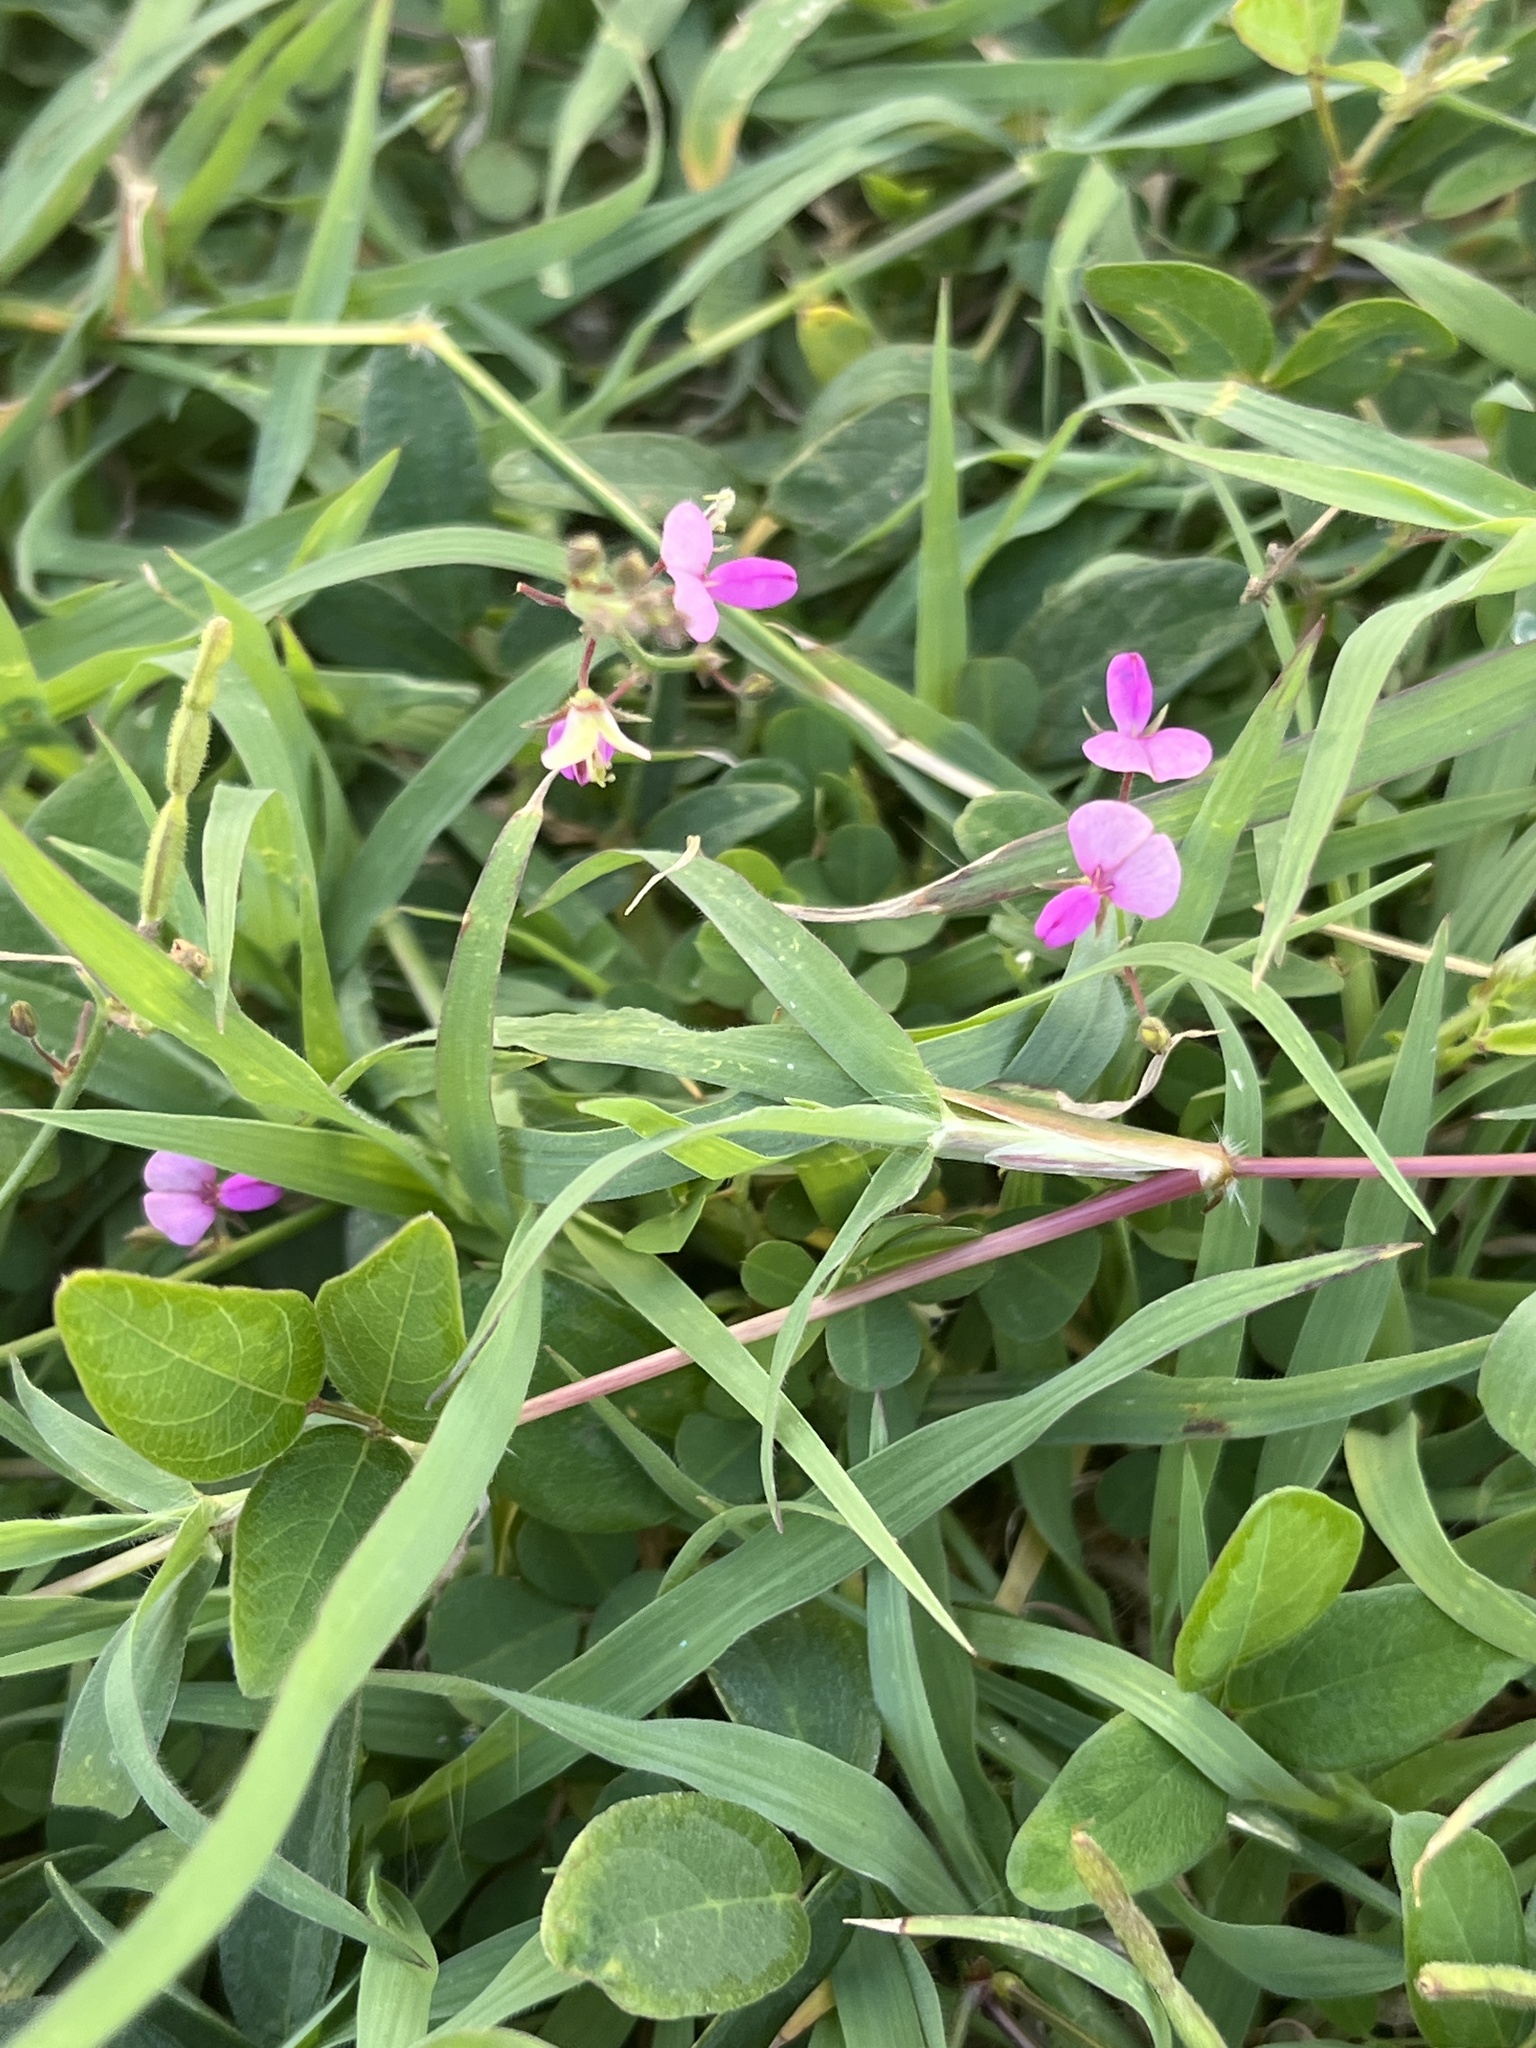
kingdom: Plantae
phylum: Tracheophyta
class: Magnoliopsida
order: Fabales
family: Fabaceae
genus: Desmodium
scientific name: Desmodium incanum
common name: Tickclover
